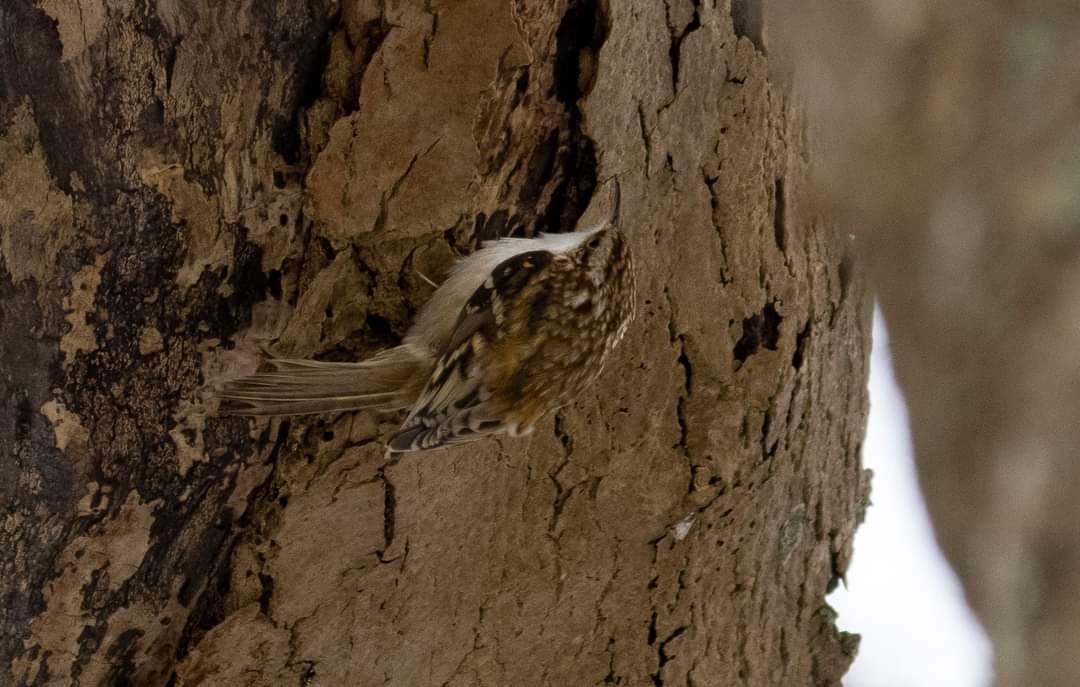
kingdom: Animalia
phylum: Chordata
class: Aves
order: Passeriformes
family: Certhiidae
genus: Certhia
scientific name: Certhia familiaris
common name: Eurasian treecreeper
